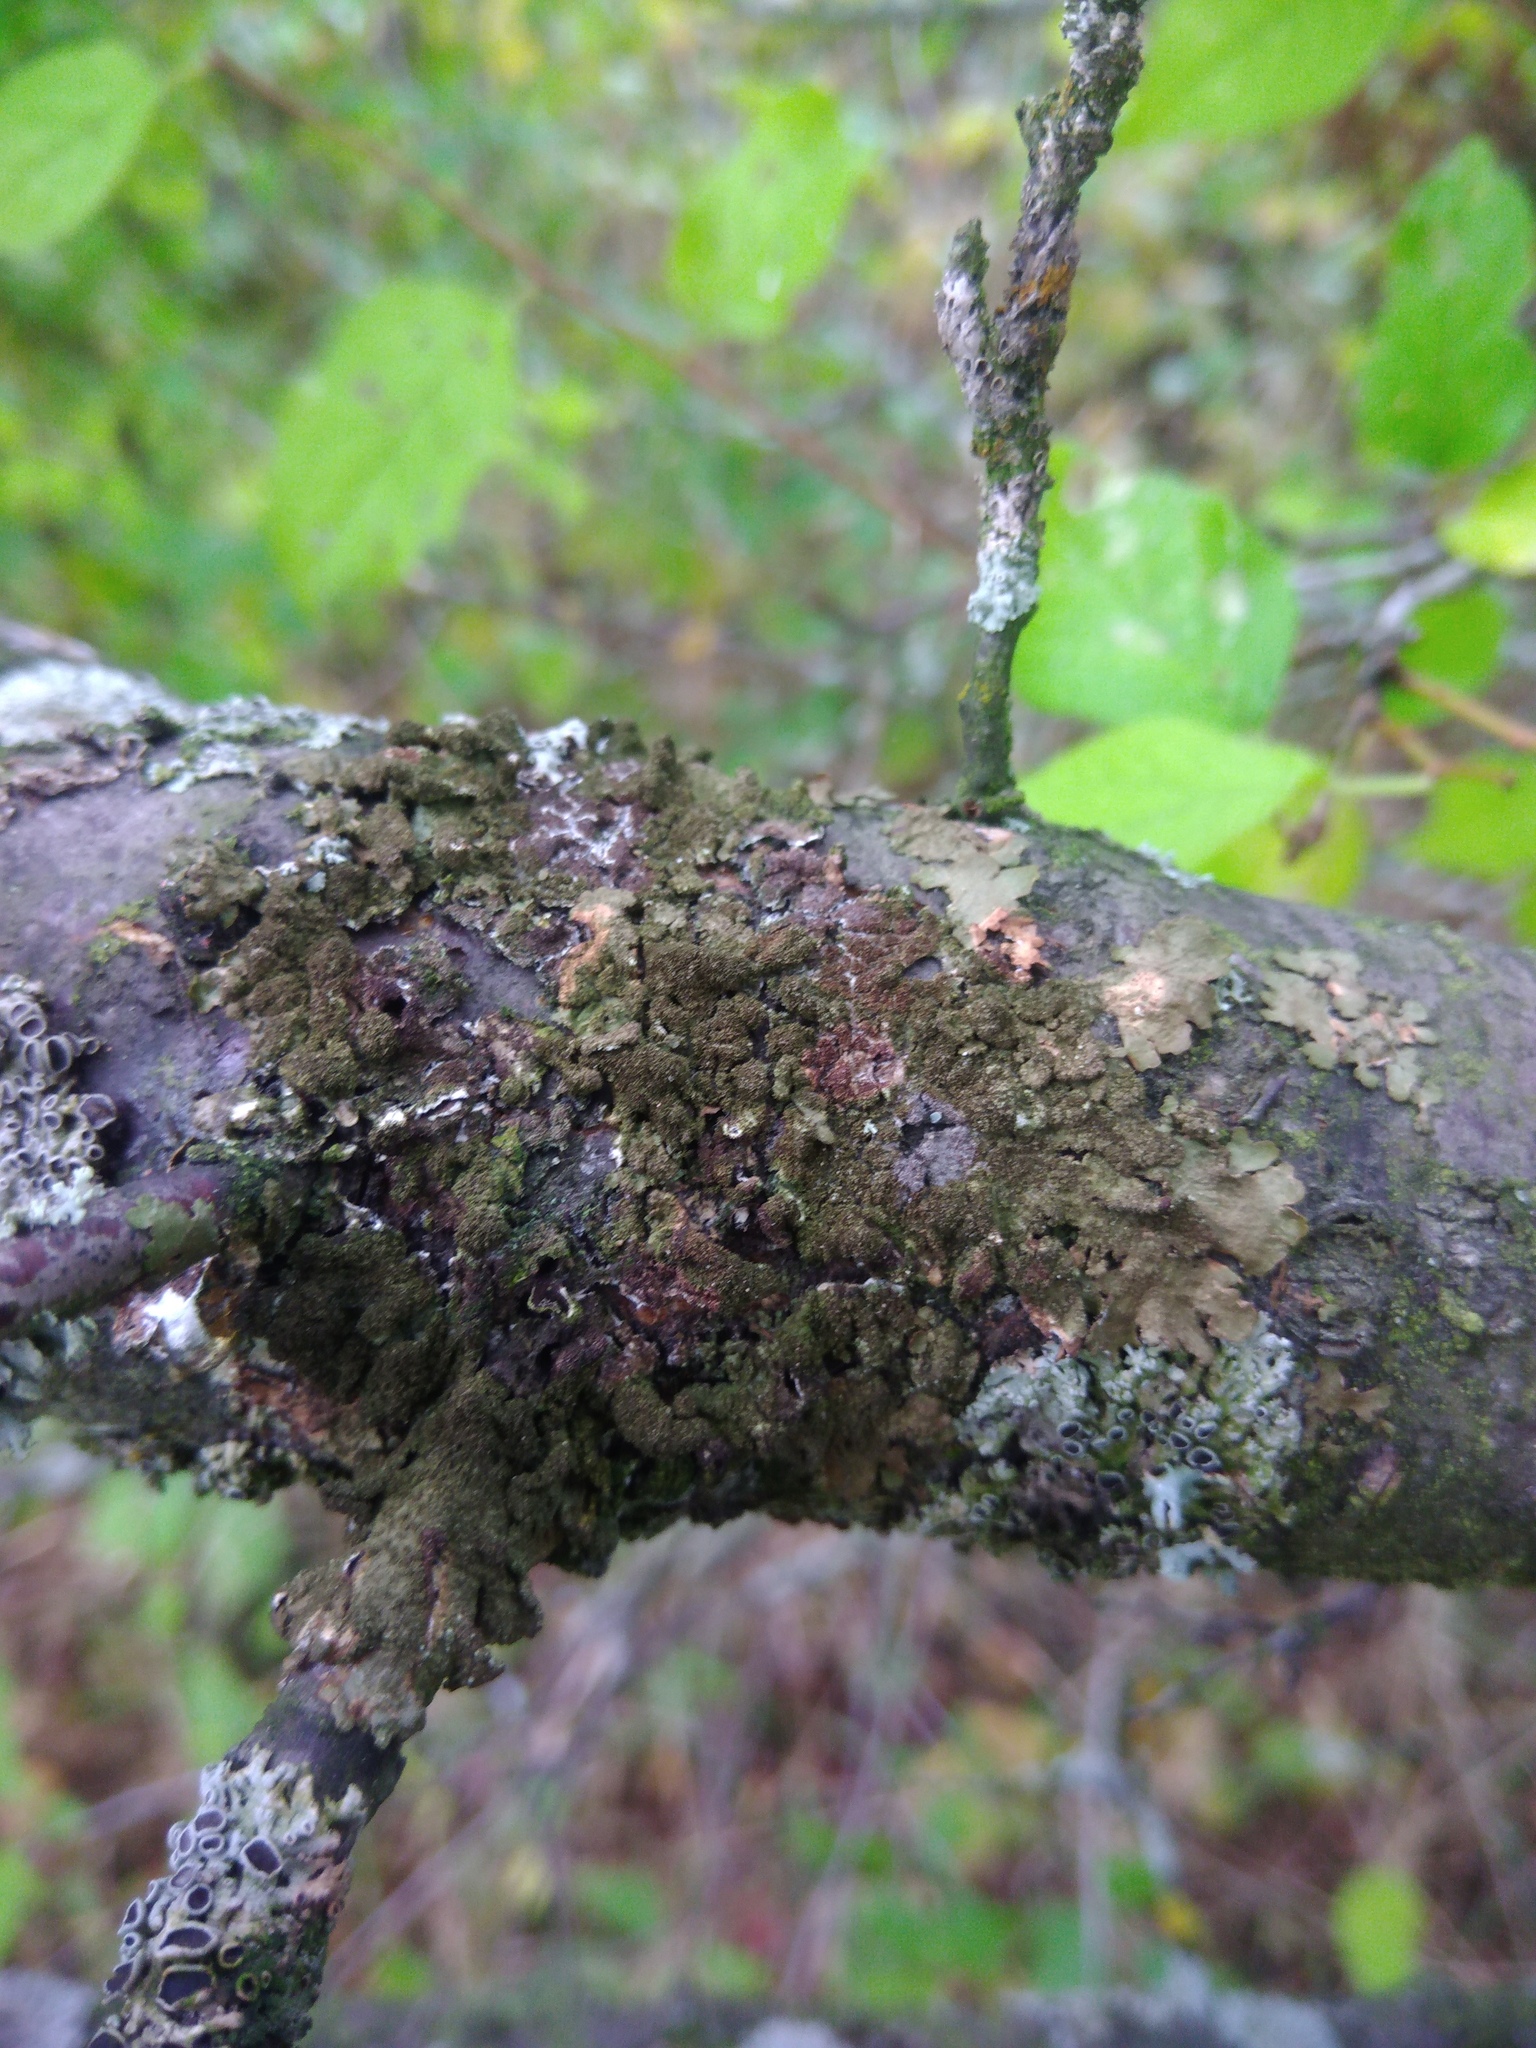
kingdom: Fungi
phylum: Ascomycota
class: Lecanoromycetes
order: Lecanorales
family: Parmeliaceae
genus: Melanelixia
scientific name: Melanelixia subaurifera
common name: Abraded camouflage lichen
